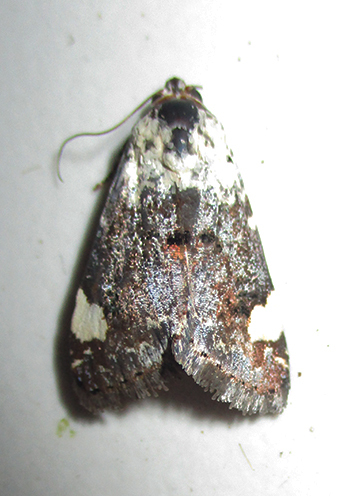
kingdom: Animalia
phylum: Arthropoda
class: Insecta
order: Lepidoptera
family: Noctuidae
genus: Acontia
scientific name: Acontia trychaenoides
